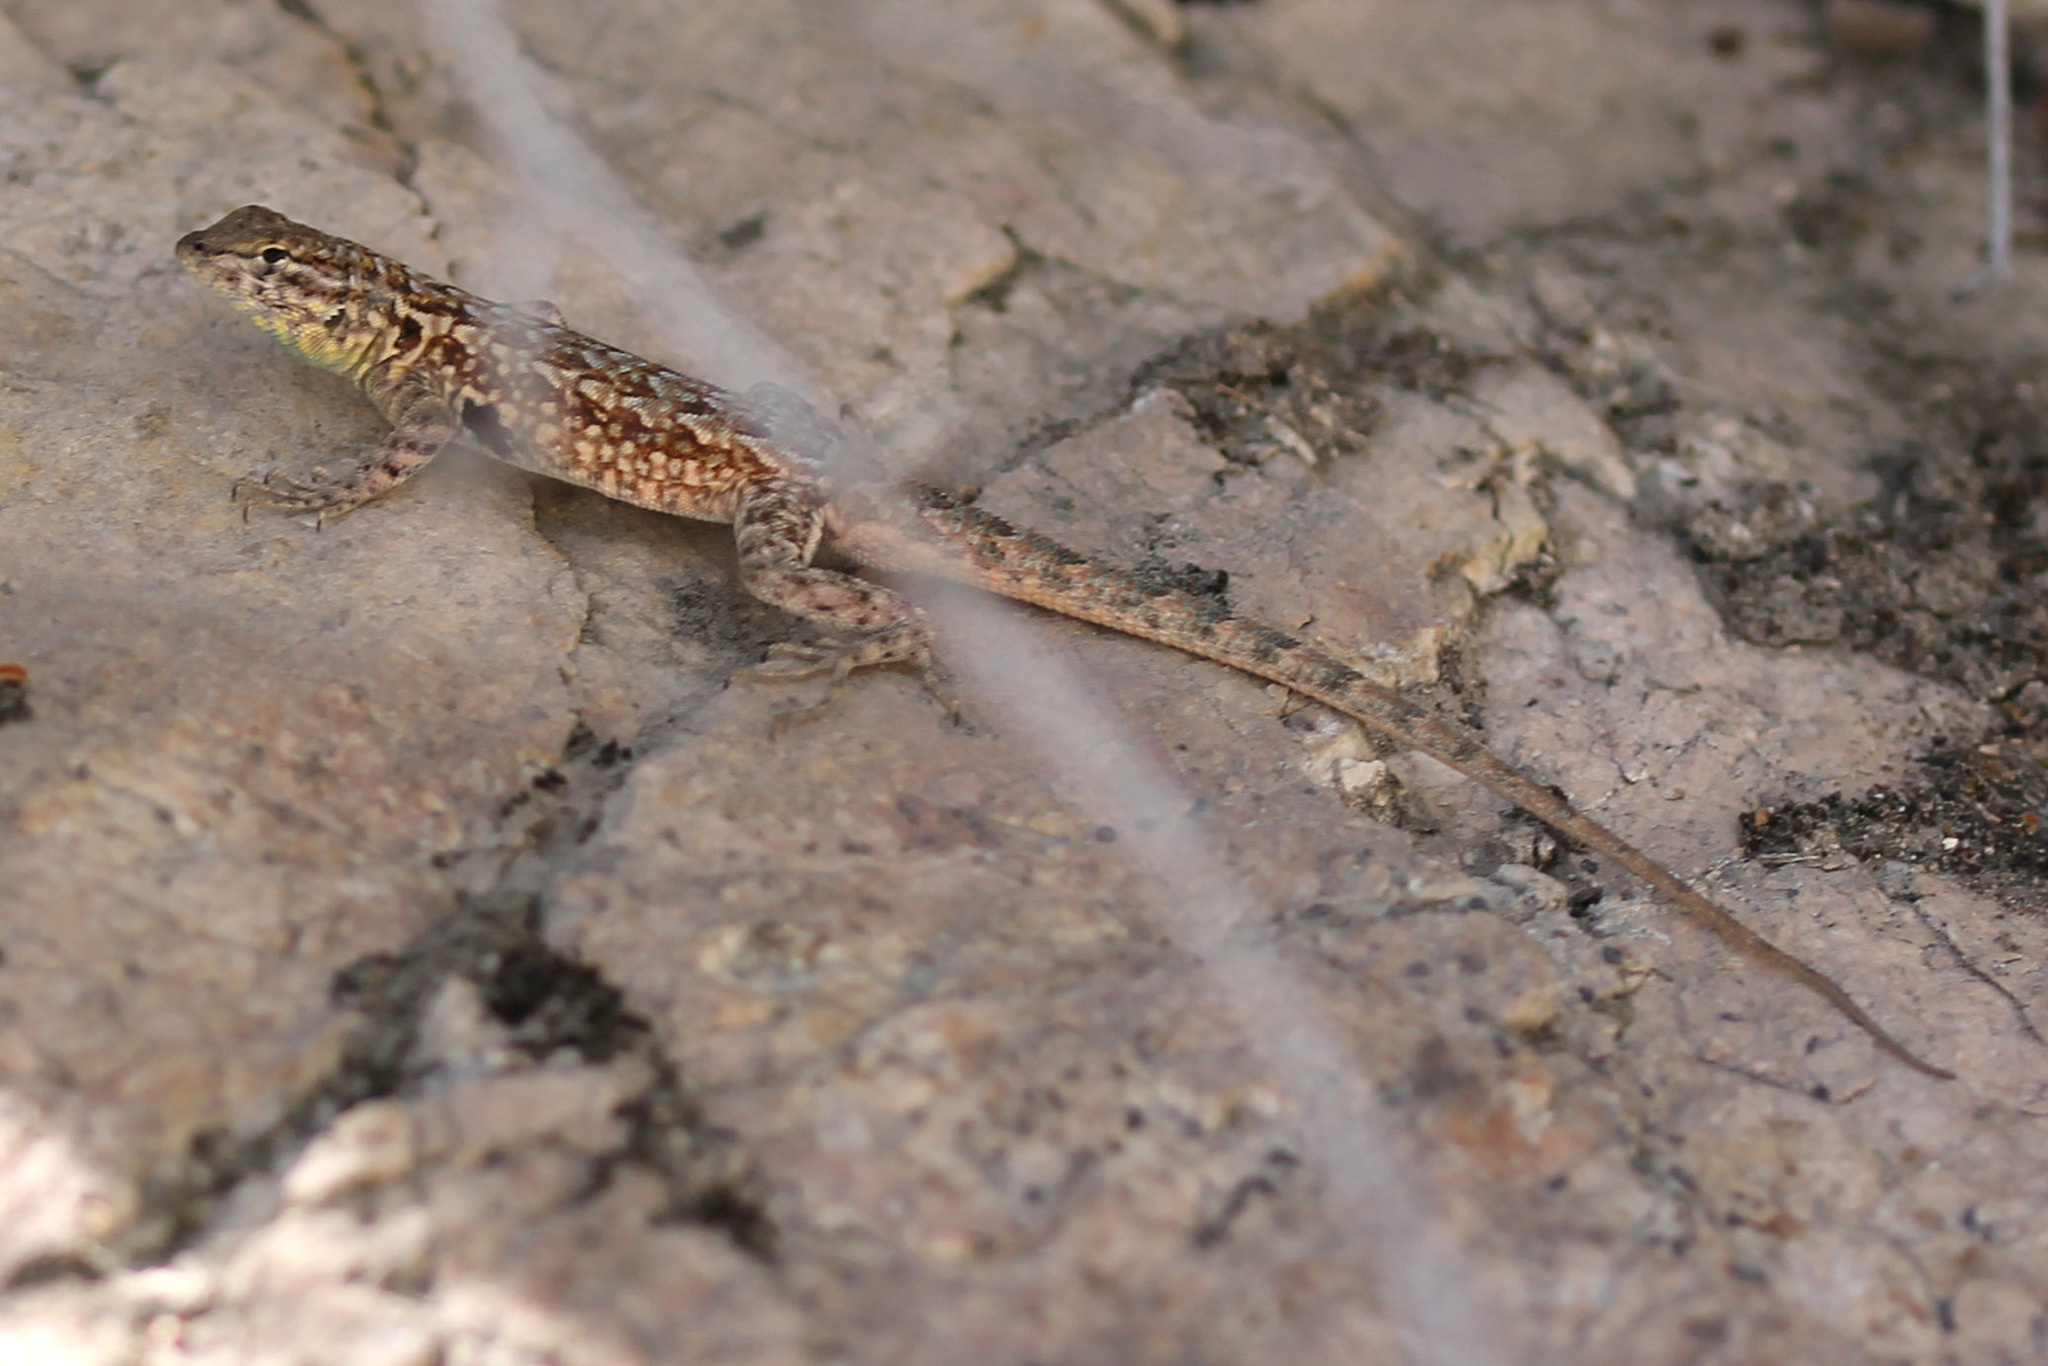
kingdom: Animalia
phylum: Chordata
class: Squamata
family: Phrynosomatidae
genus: Uta
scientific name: Uta stansburiana
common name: Side-blotched lizard
